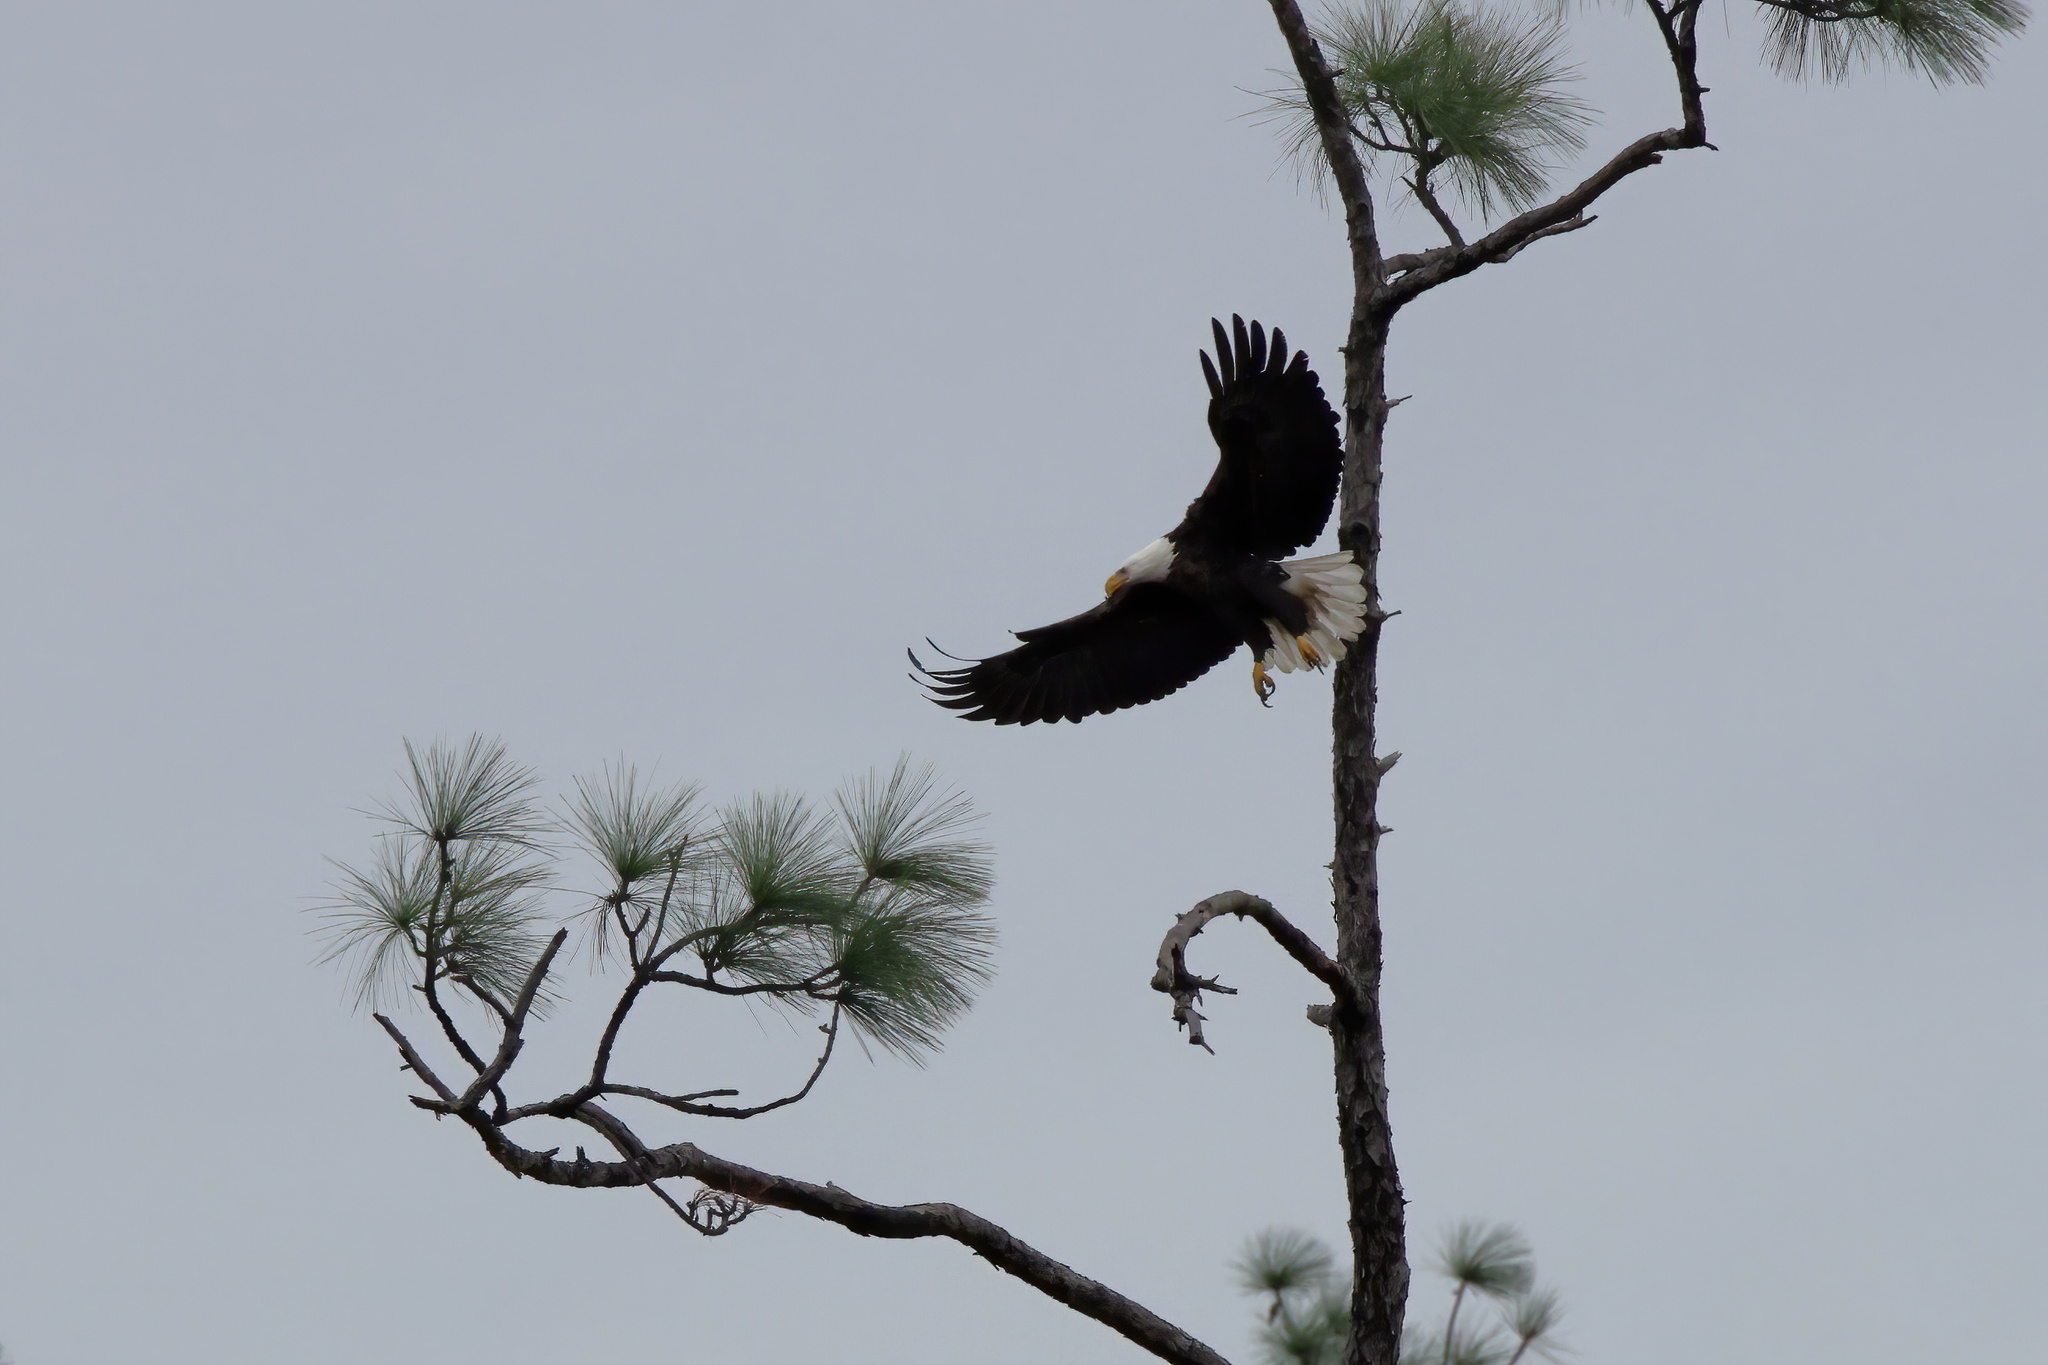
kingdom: Animalia
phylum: Chordata
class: Aves
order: Accipitriformes
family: Accipitridae
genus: Haliaeetus
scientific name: Haliaeetus leucocephalus
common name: Bald eagle
